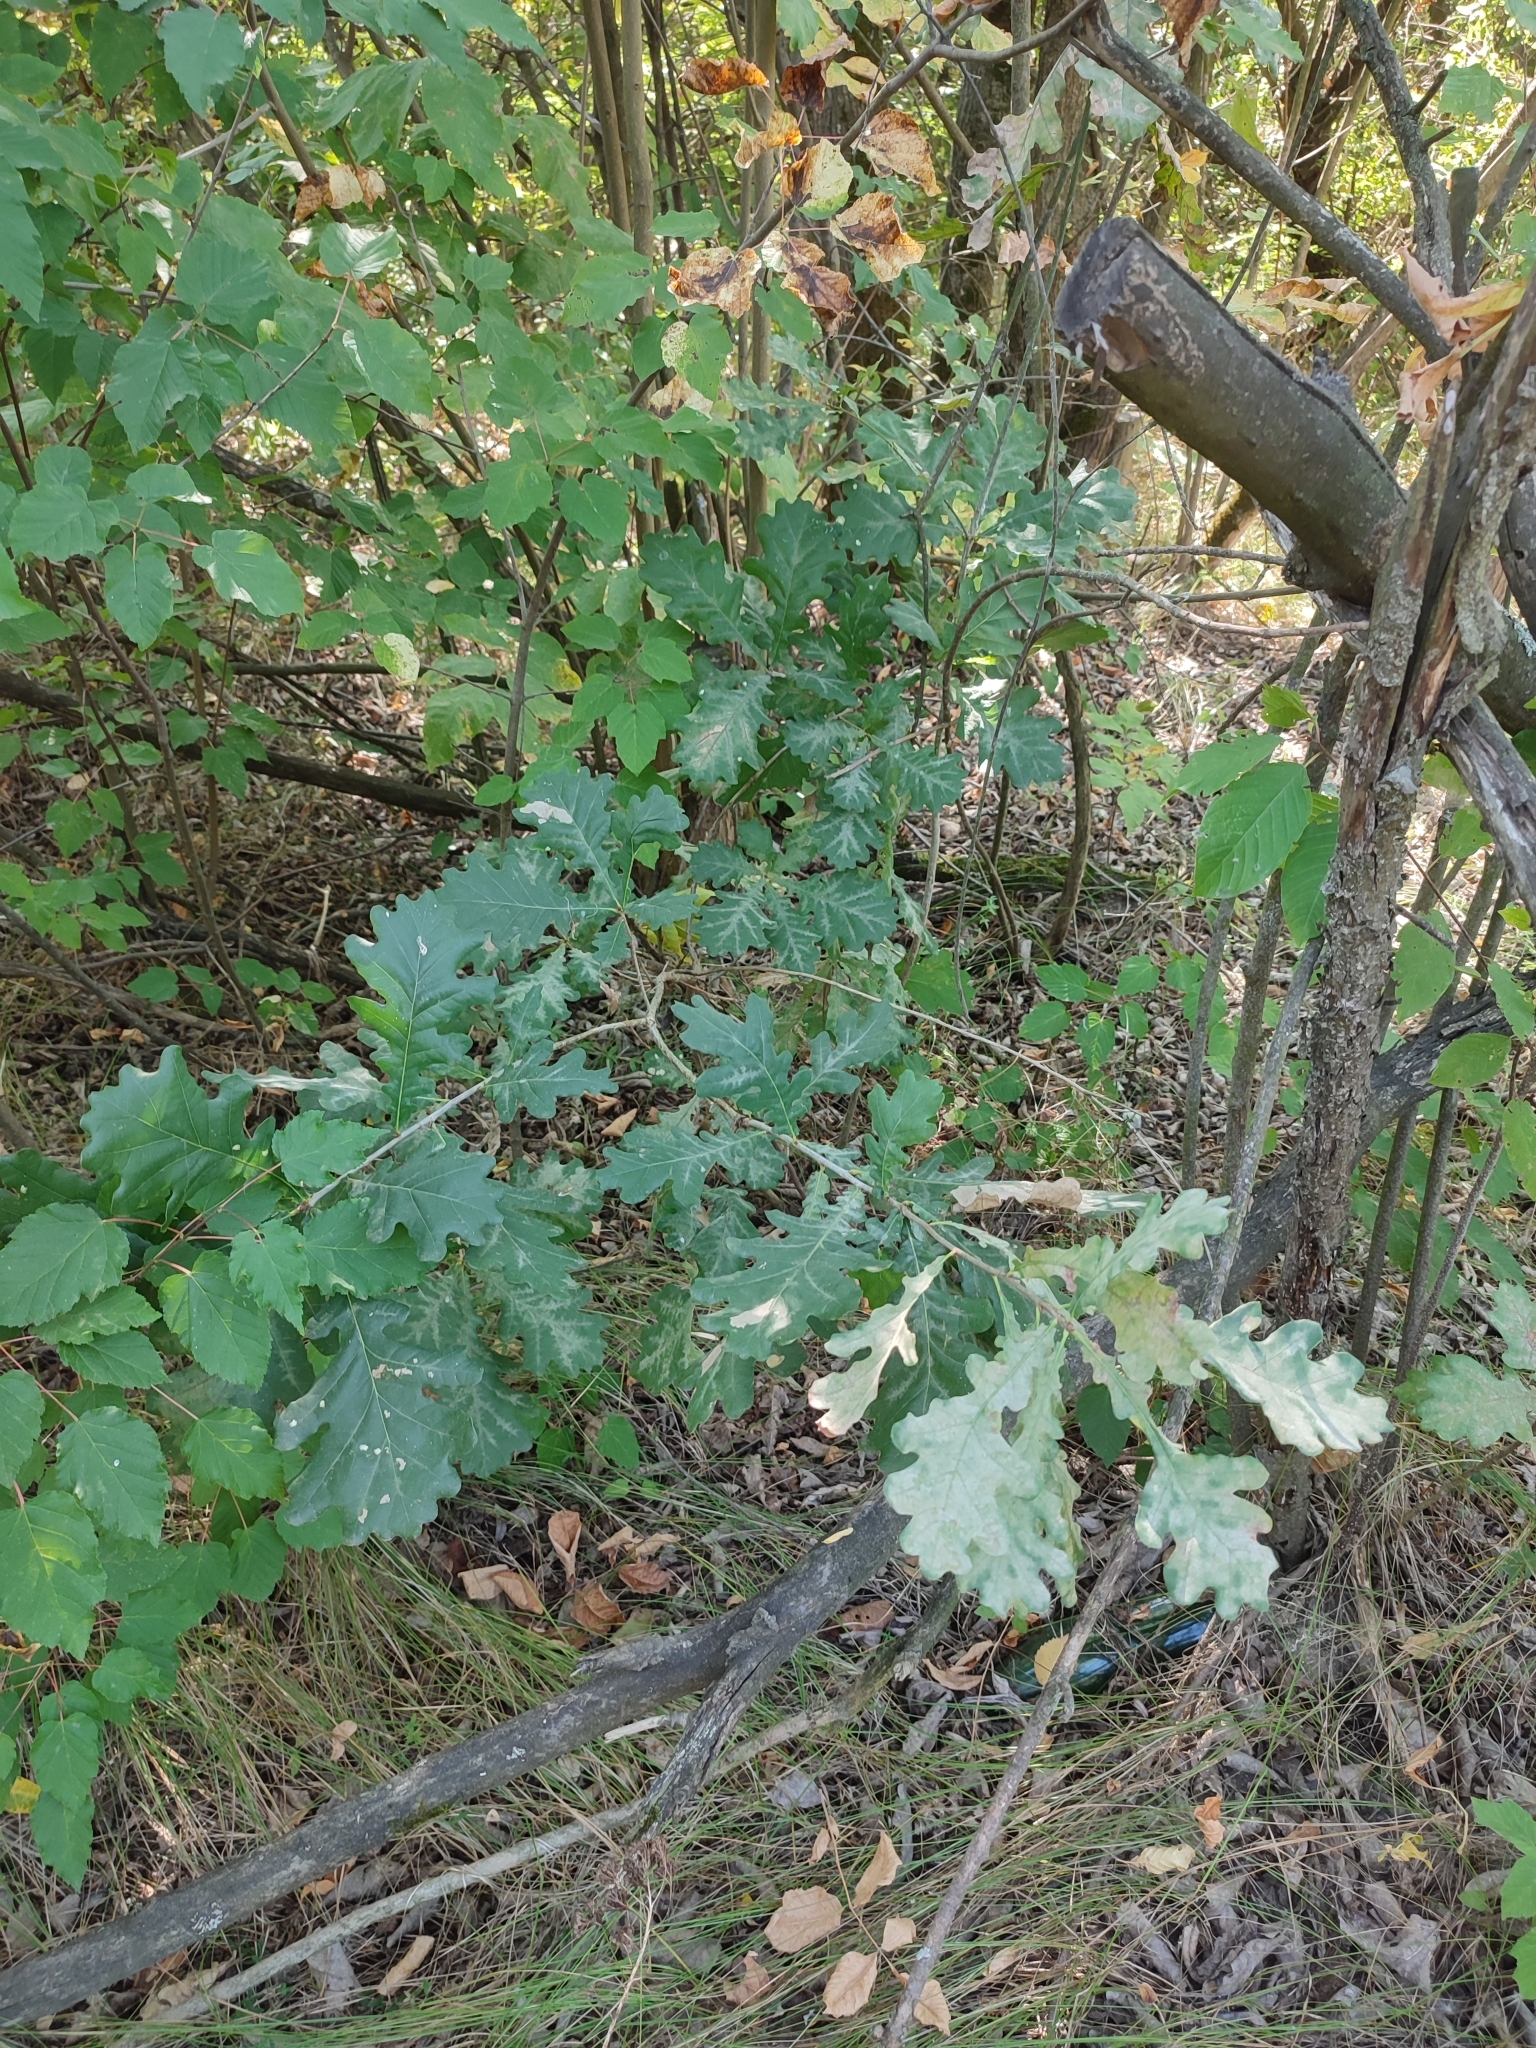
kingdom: Plantae
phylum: Tracheophyta
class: Magnoliopsida
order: Fagales
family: Fagaceae
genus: Quercus
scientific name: Quercus robur
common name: Pedunculate oak
